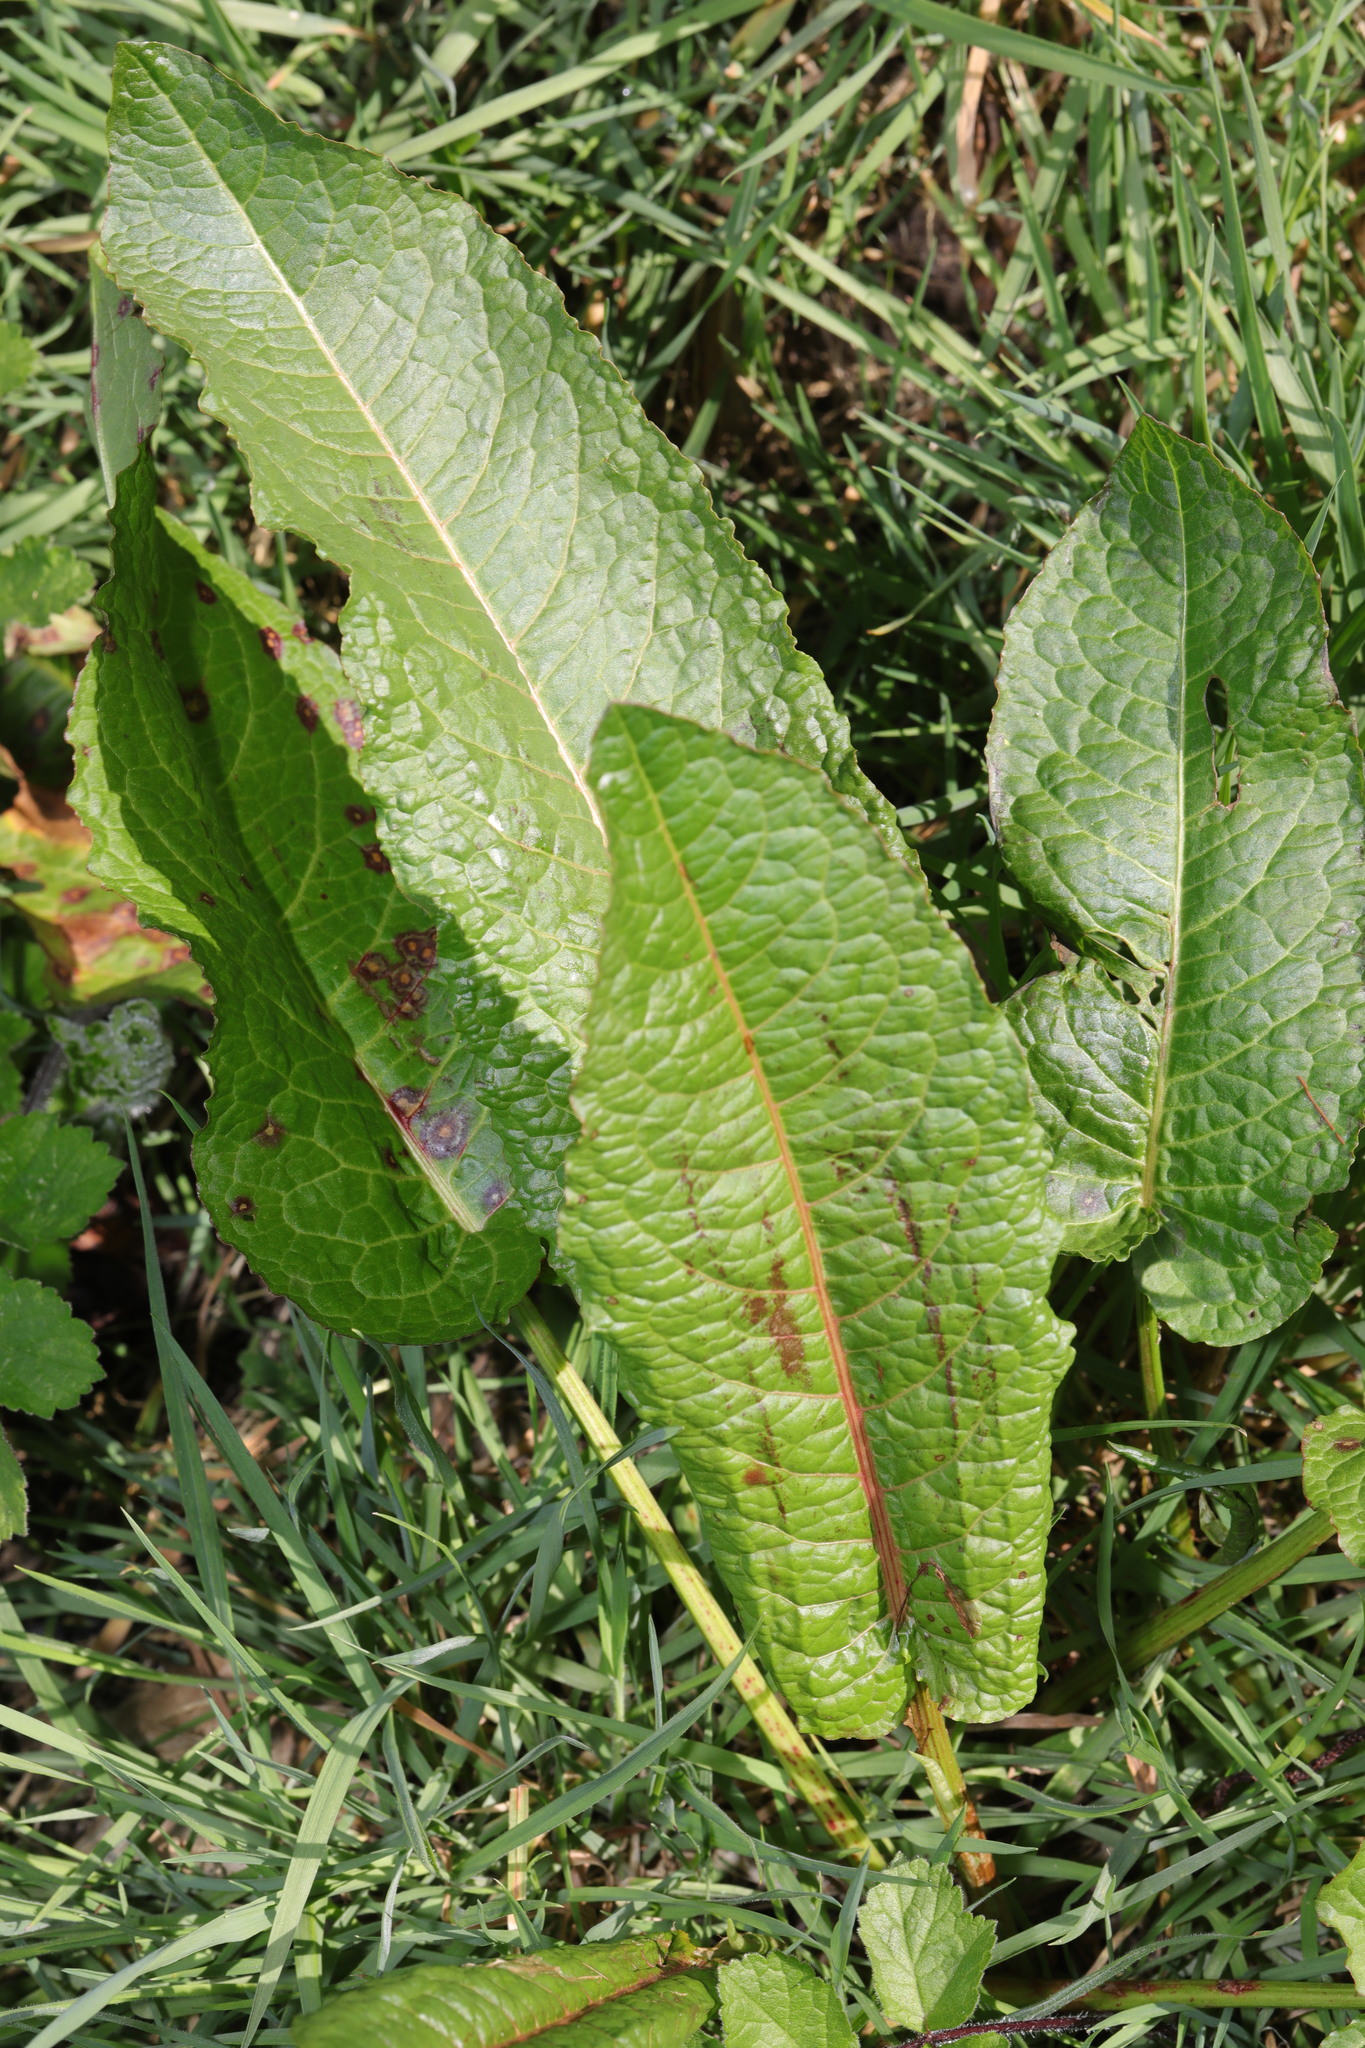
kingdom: Plantae
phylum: Tracheophyta
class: Magnoliopsida
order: Caryophyllales
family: Polygonaceae
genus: Rumex
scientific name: Rumex obtusifolius
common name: Bitter dock
